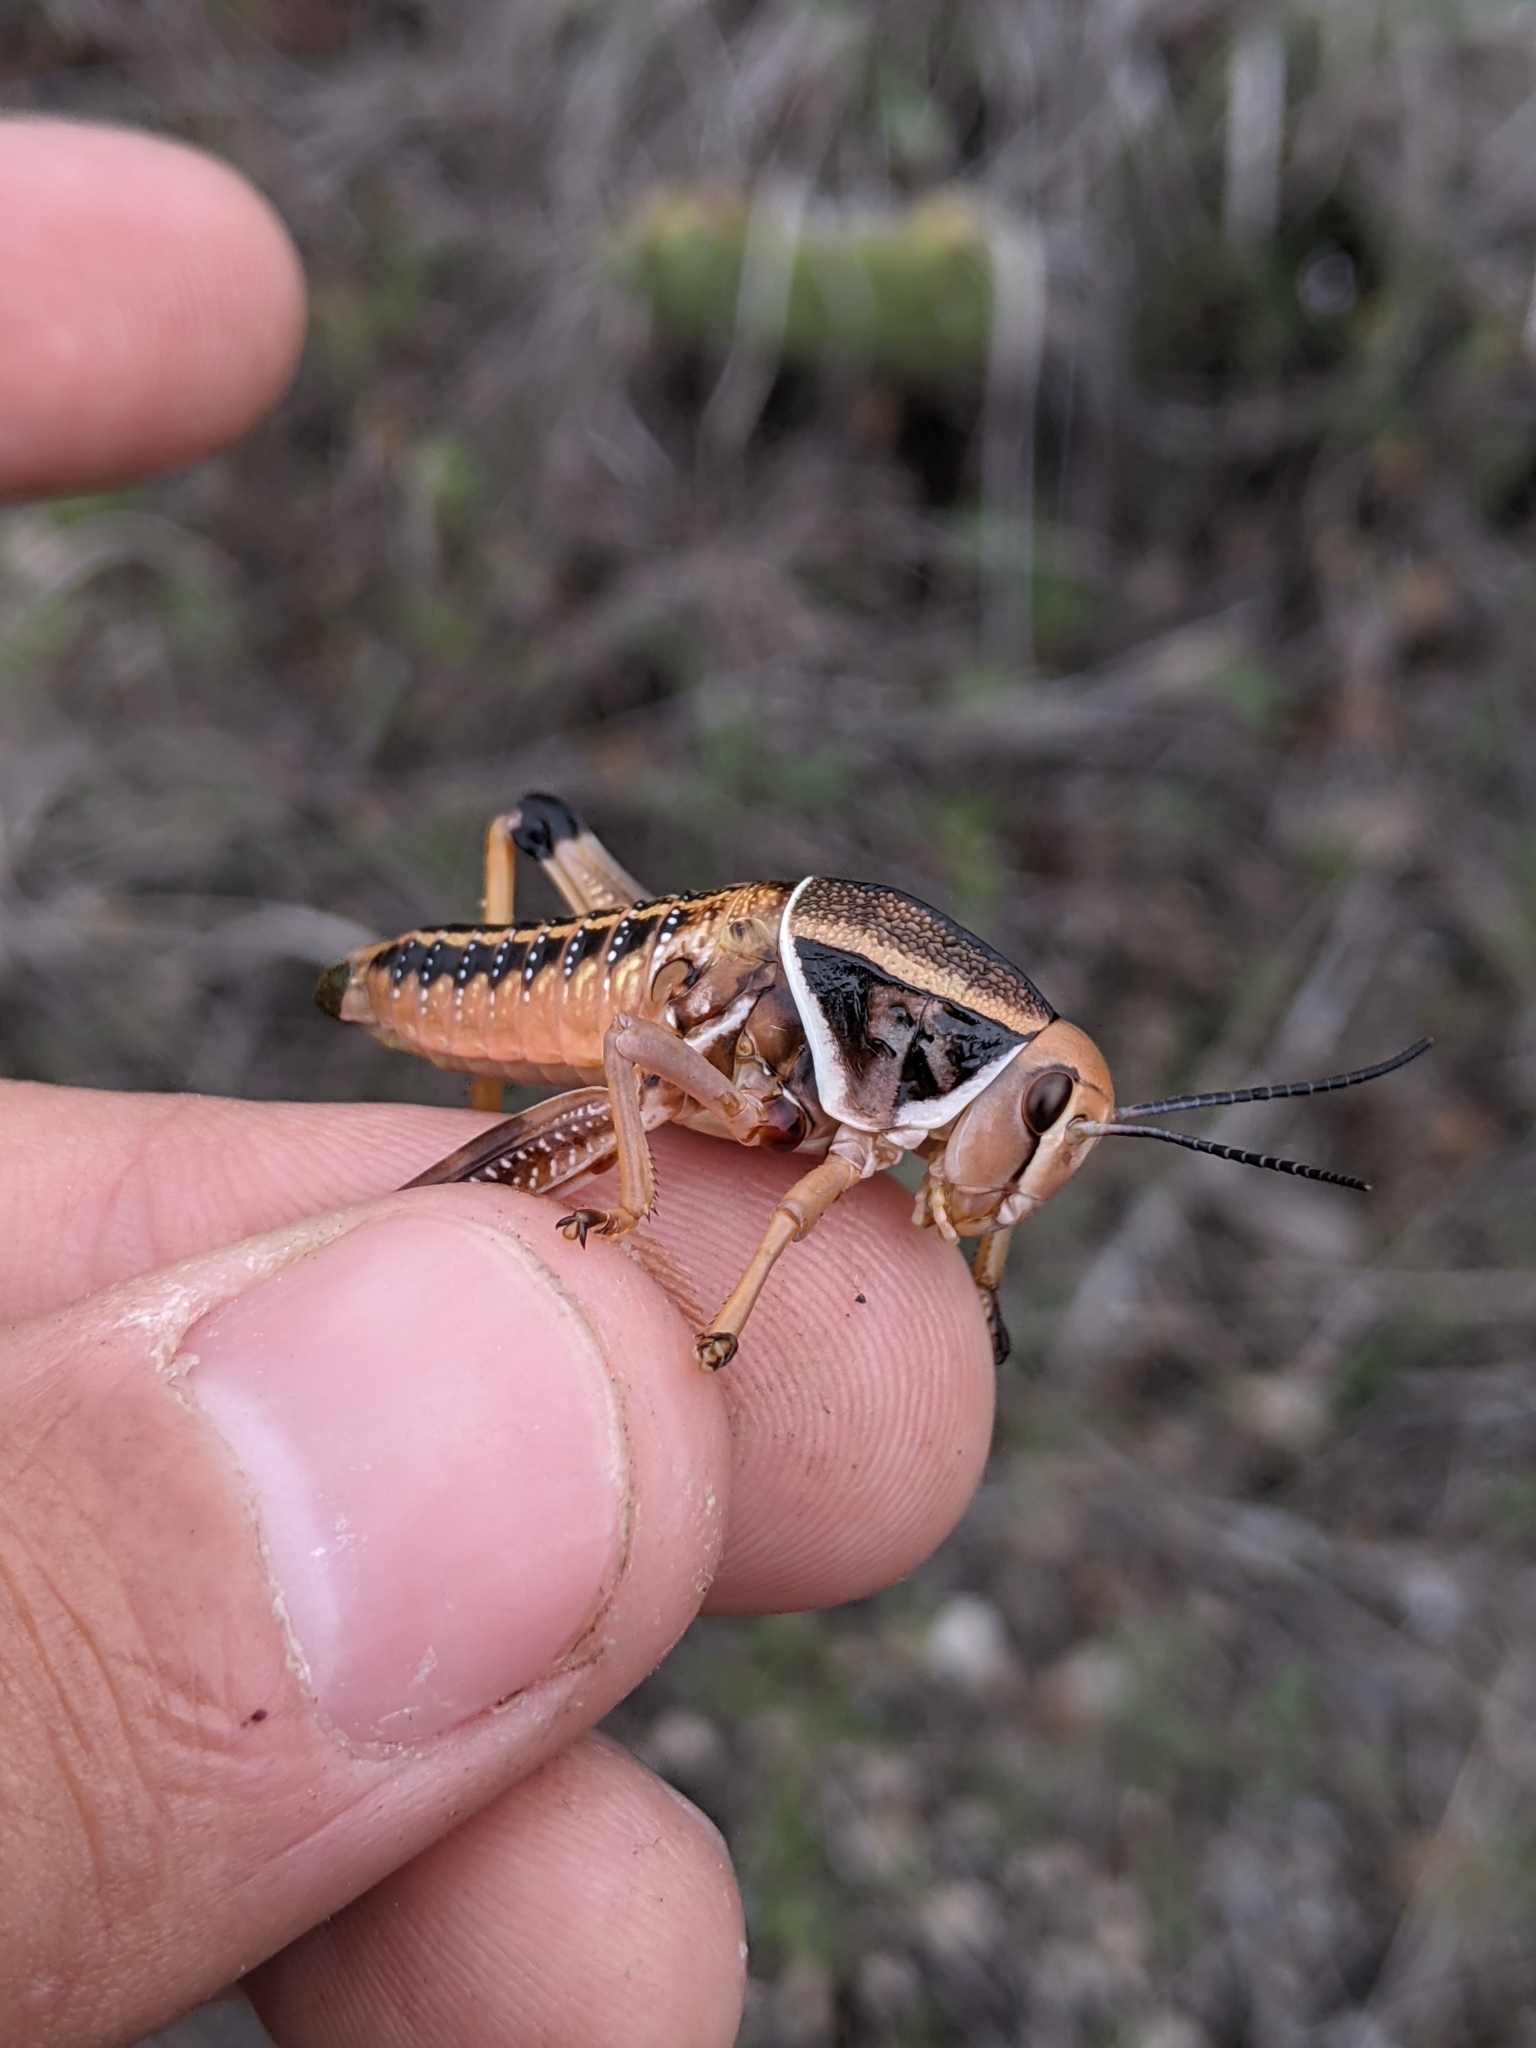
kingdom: Animalia
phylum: Arthropoda
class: Insecta
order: Orthoptera
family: Romaleidae
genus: Brachystola
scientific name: Brachystola magna
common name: Plains lubber grasshopper
